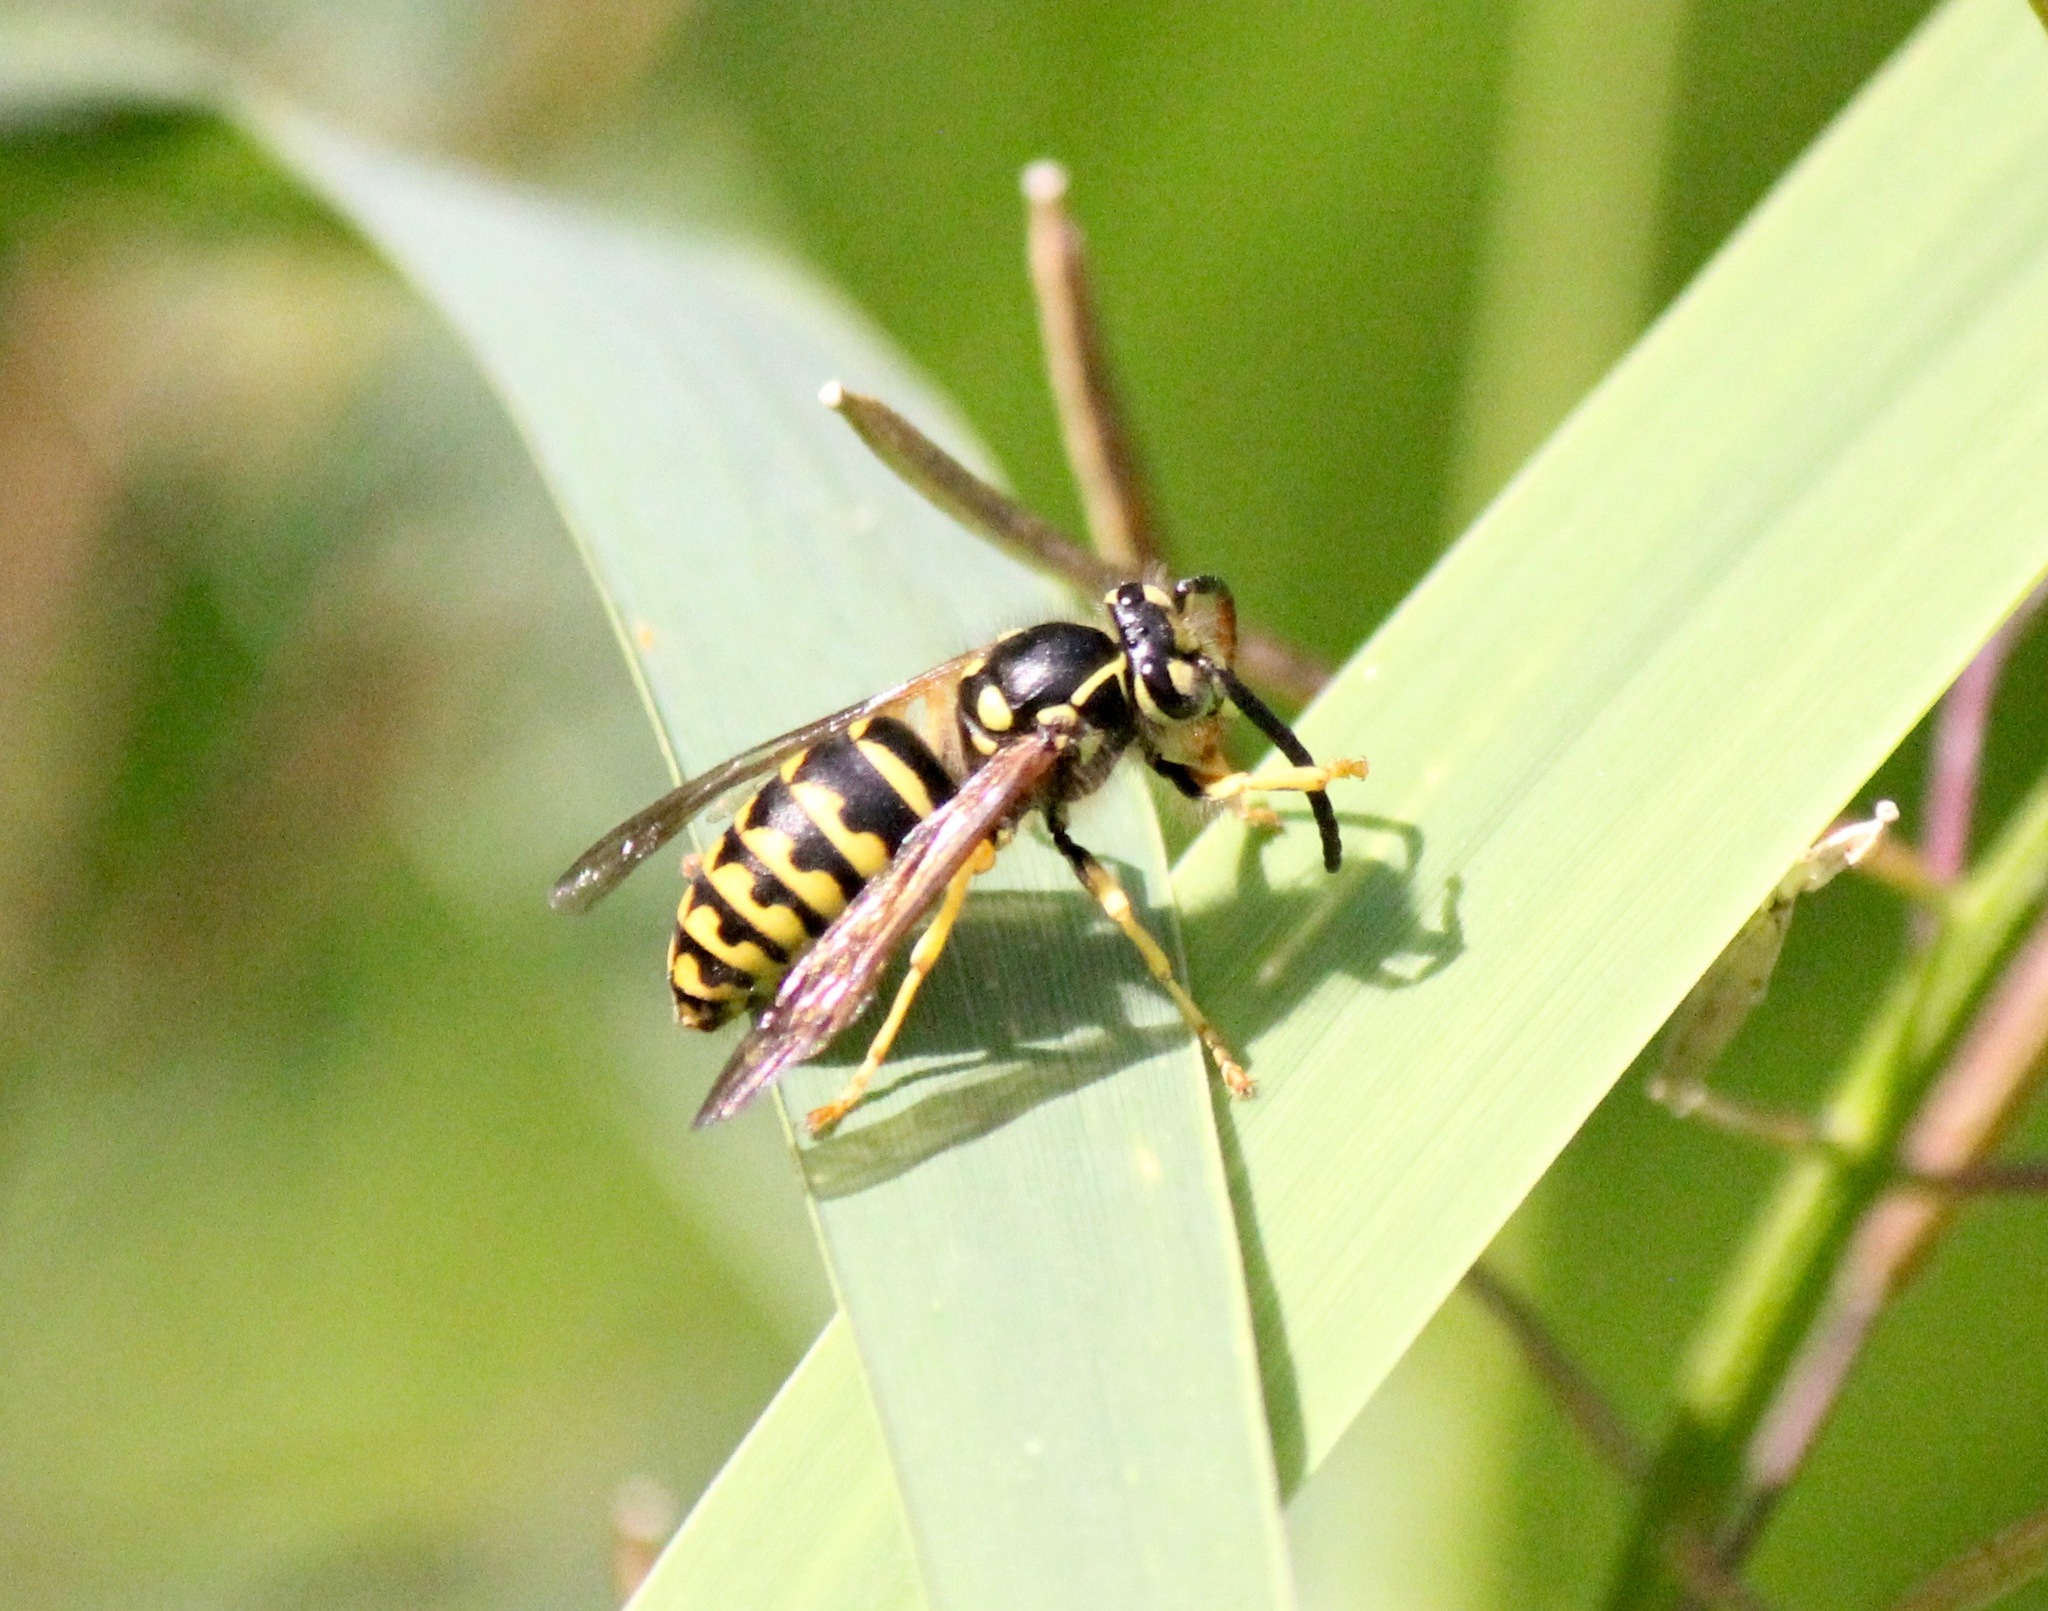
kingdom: Animalia
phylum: Arthropoda
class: Insecta
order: Hymenoptera
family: Vespidae
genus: Dolichovespula
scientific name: Dolichovespula arenaria
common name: Aerial yellowjacket
